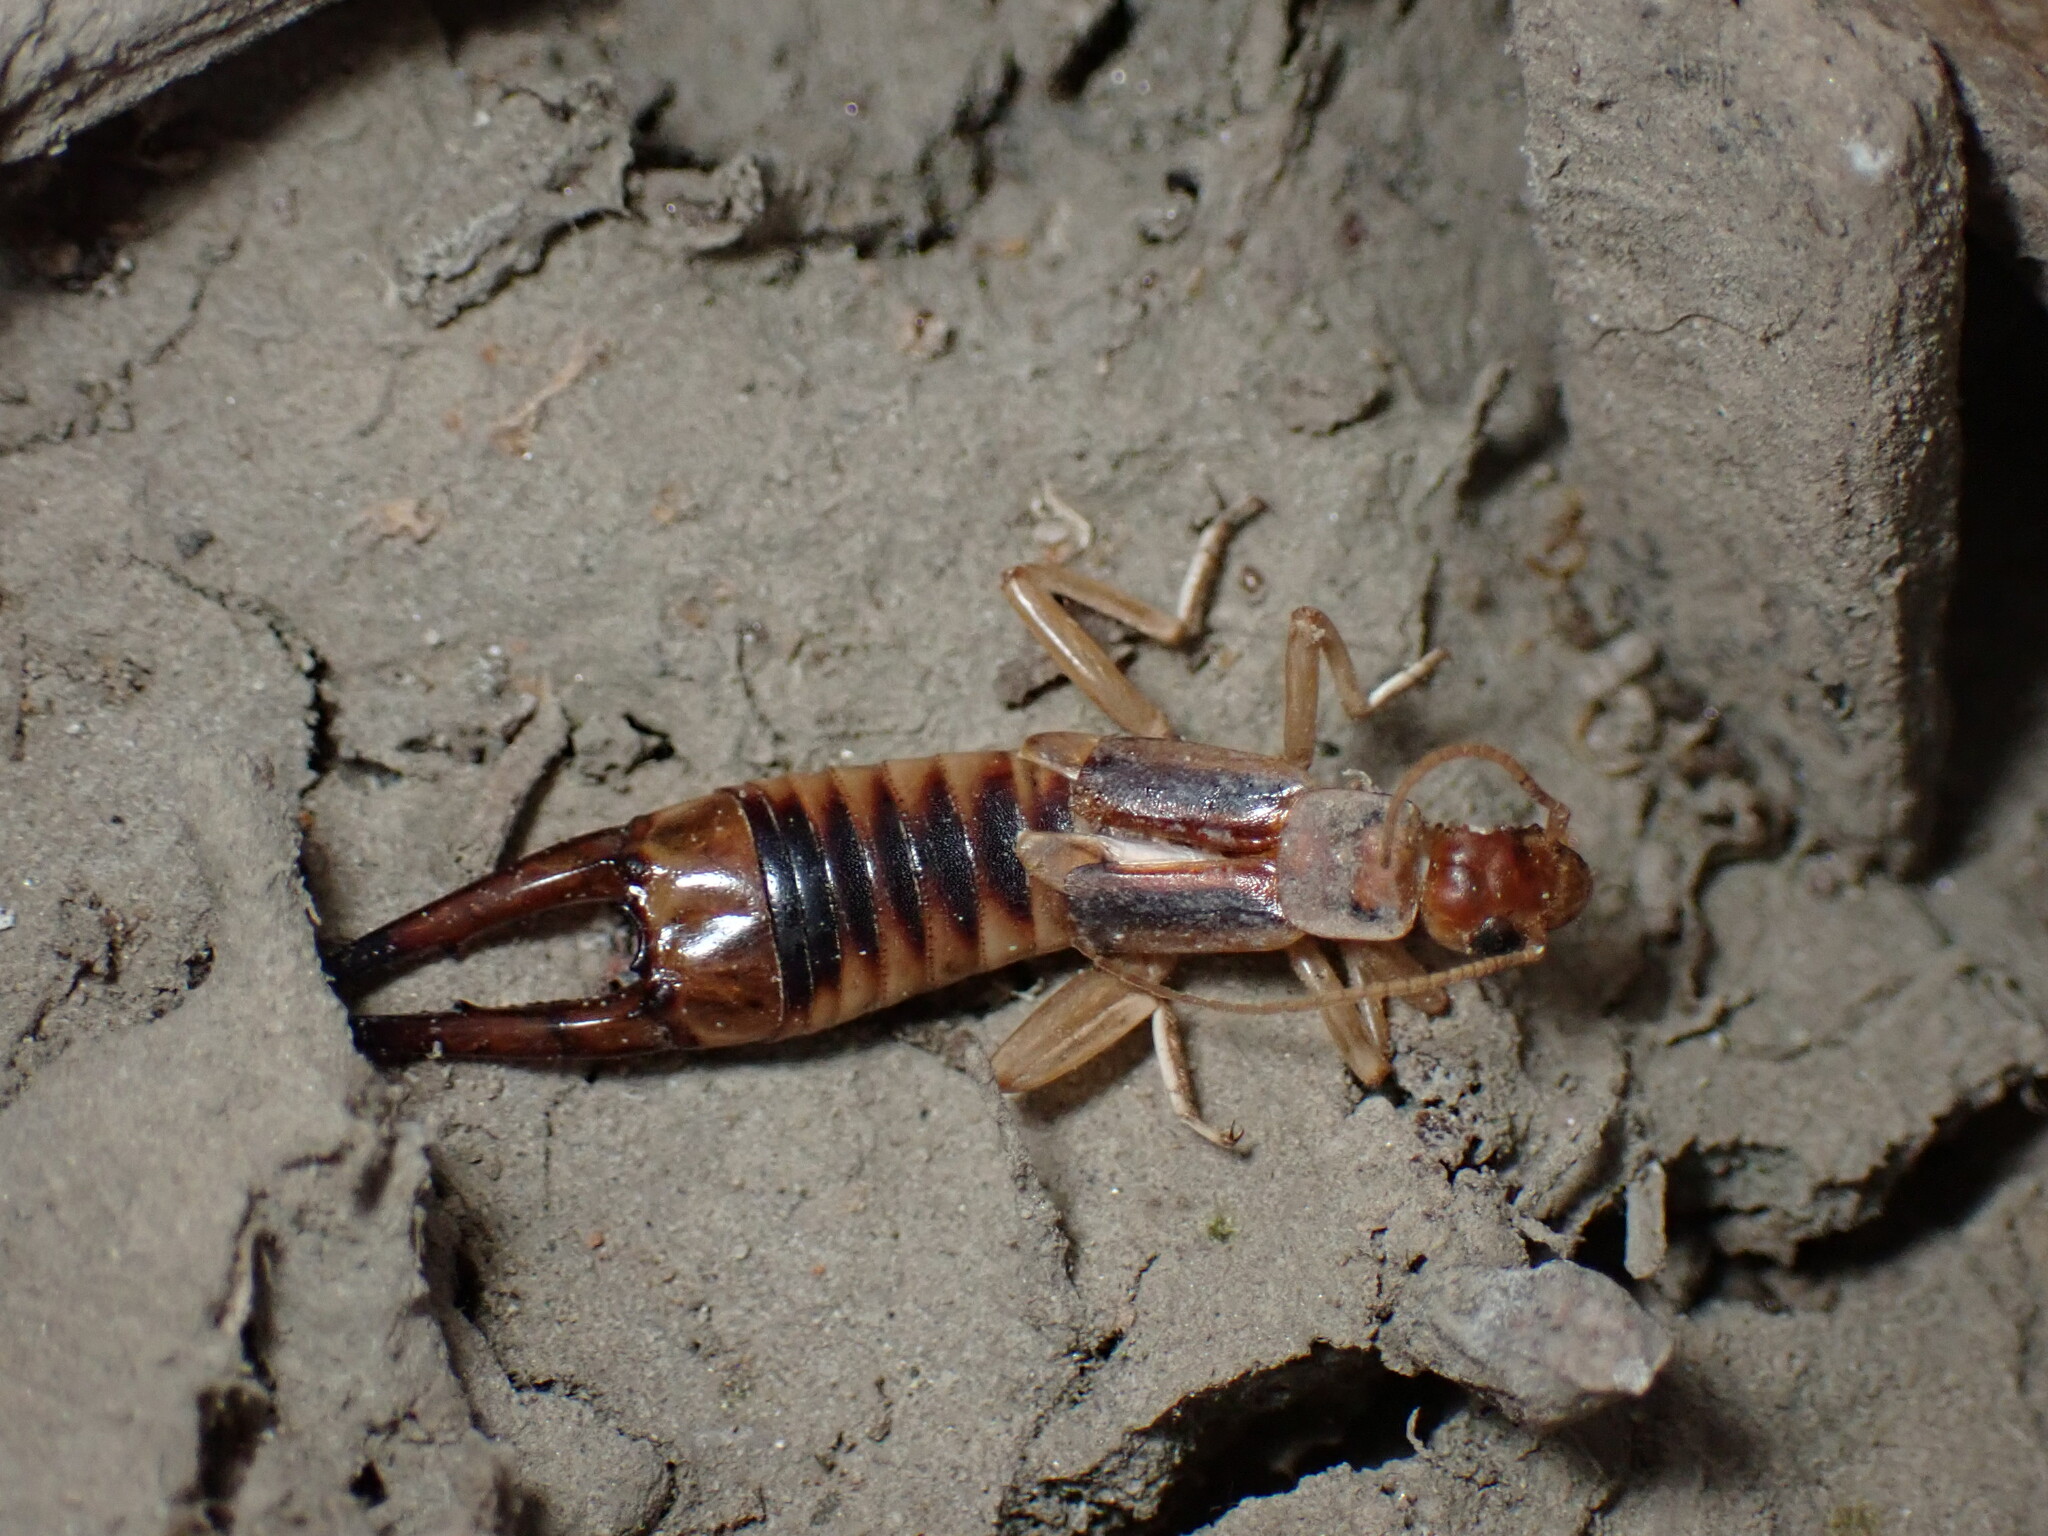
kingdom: Animalia
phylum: Arthropoda
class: Insecta
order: Dermaptera
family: Labiduridae
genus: Labidura
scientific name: Labidura riparia
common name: Striped earwig
